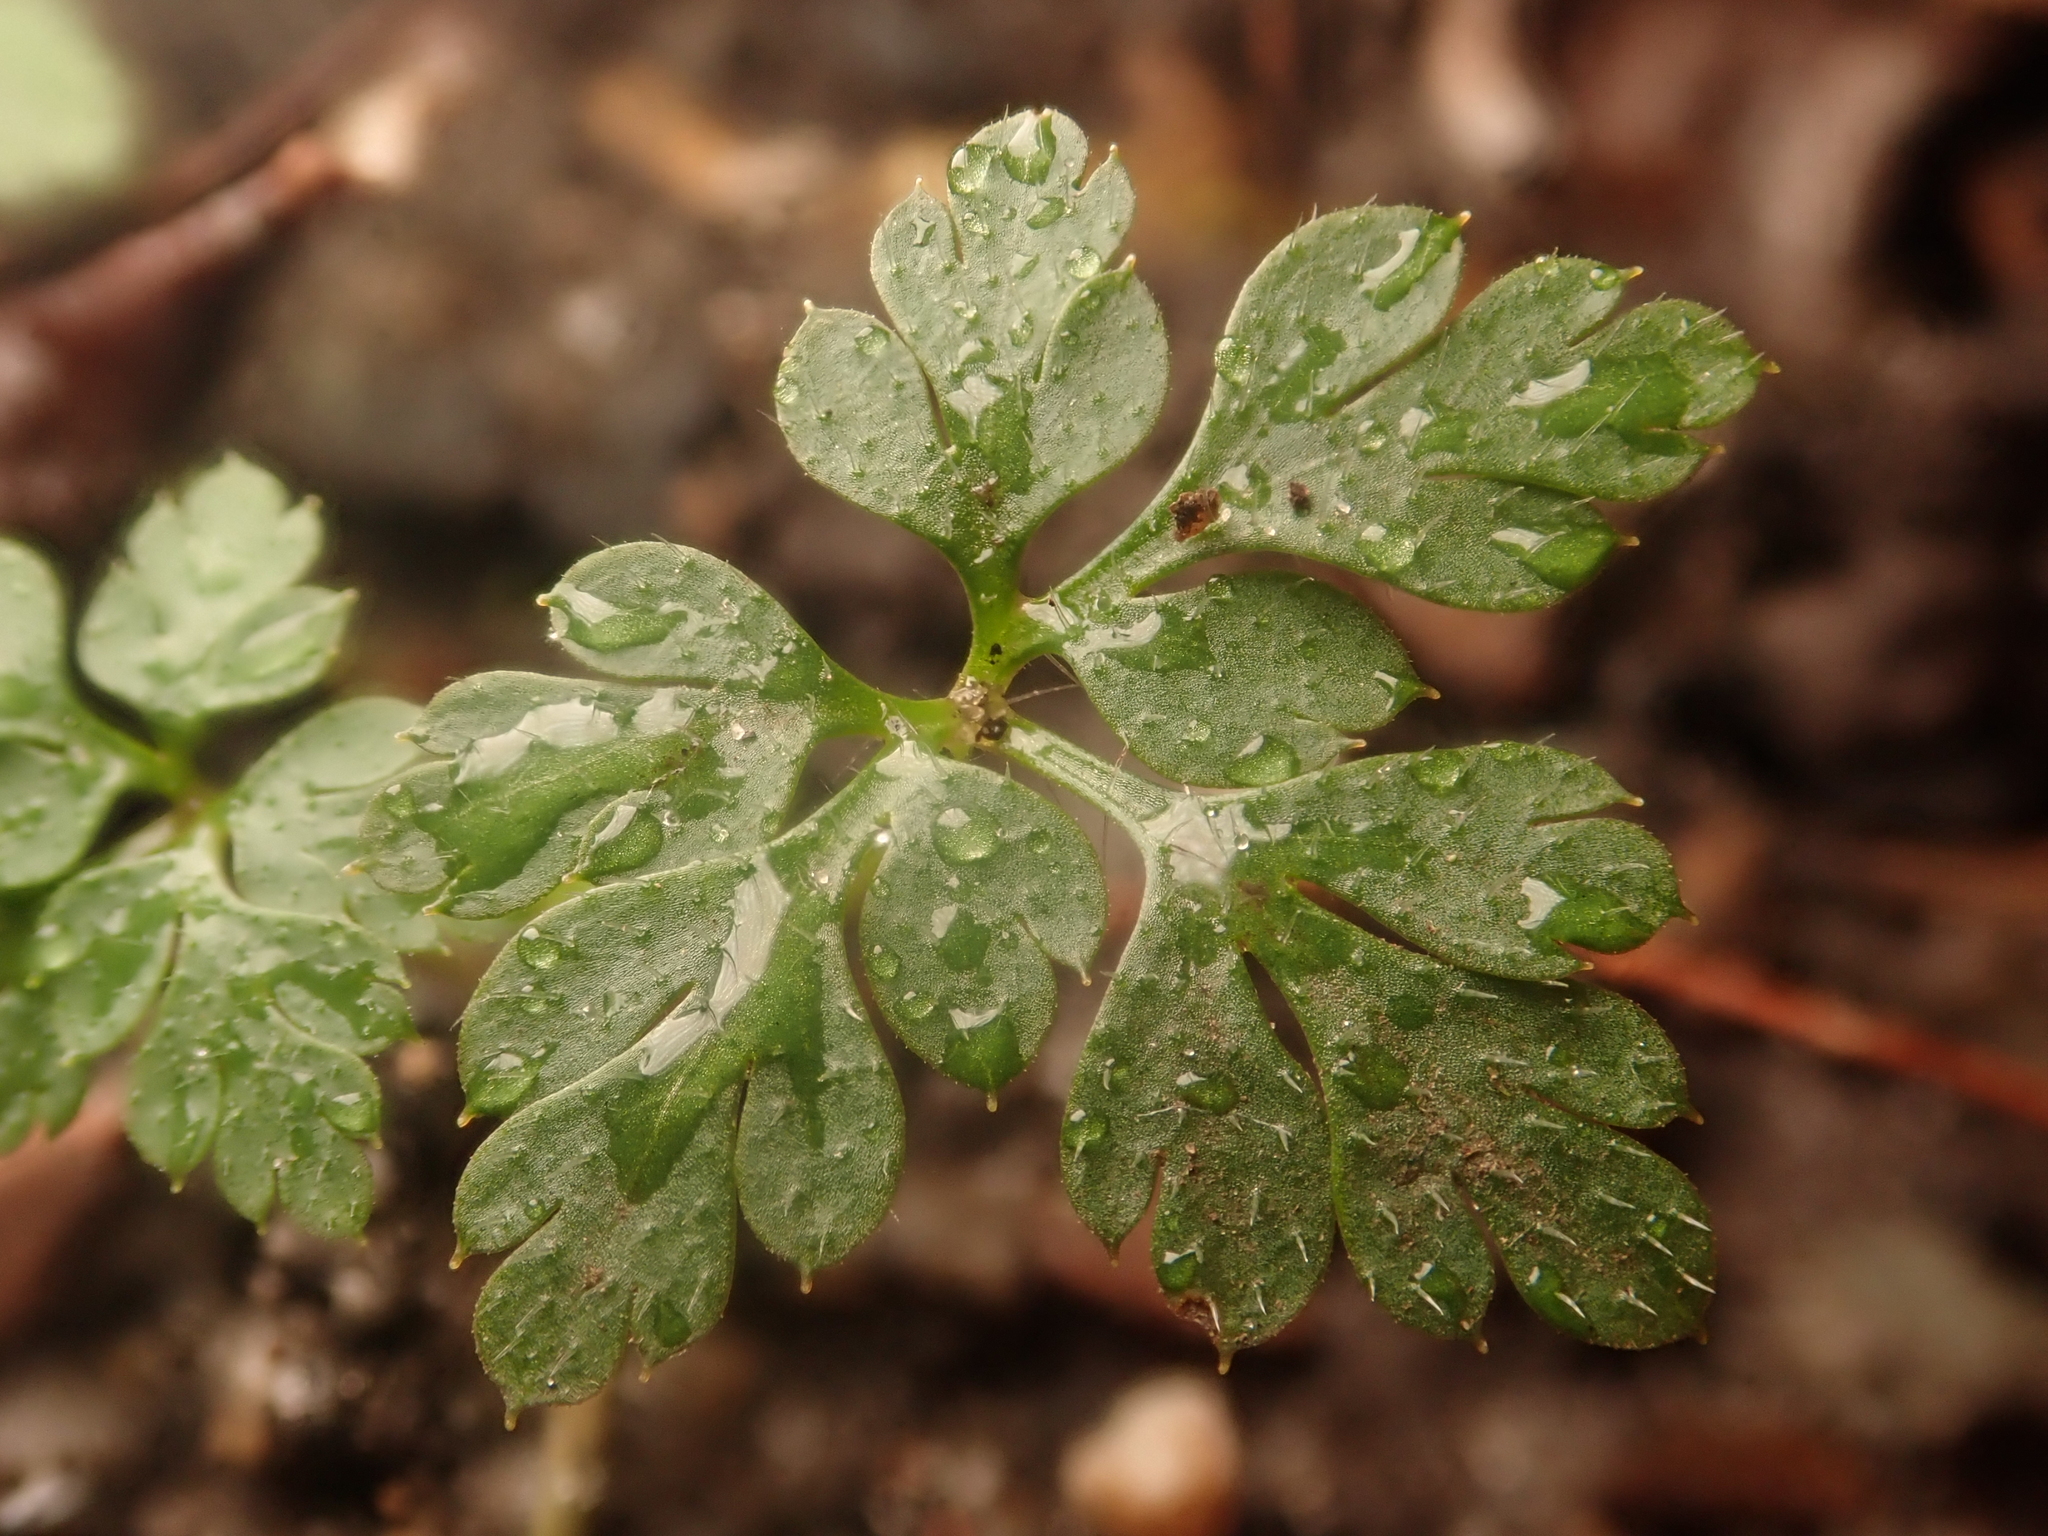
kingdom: Plantae
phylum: Tracheophyta
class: Magnoliopsida
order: Geraniales
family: Geraniaceae
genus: Geranium
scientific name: Geranium robertianum
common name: Herb-robert
